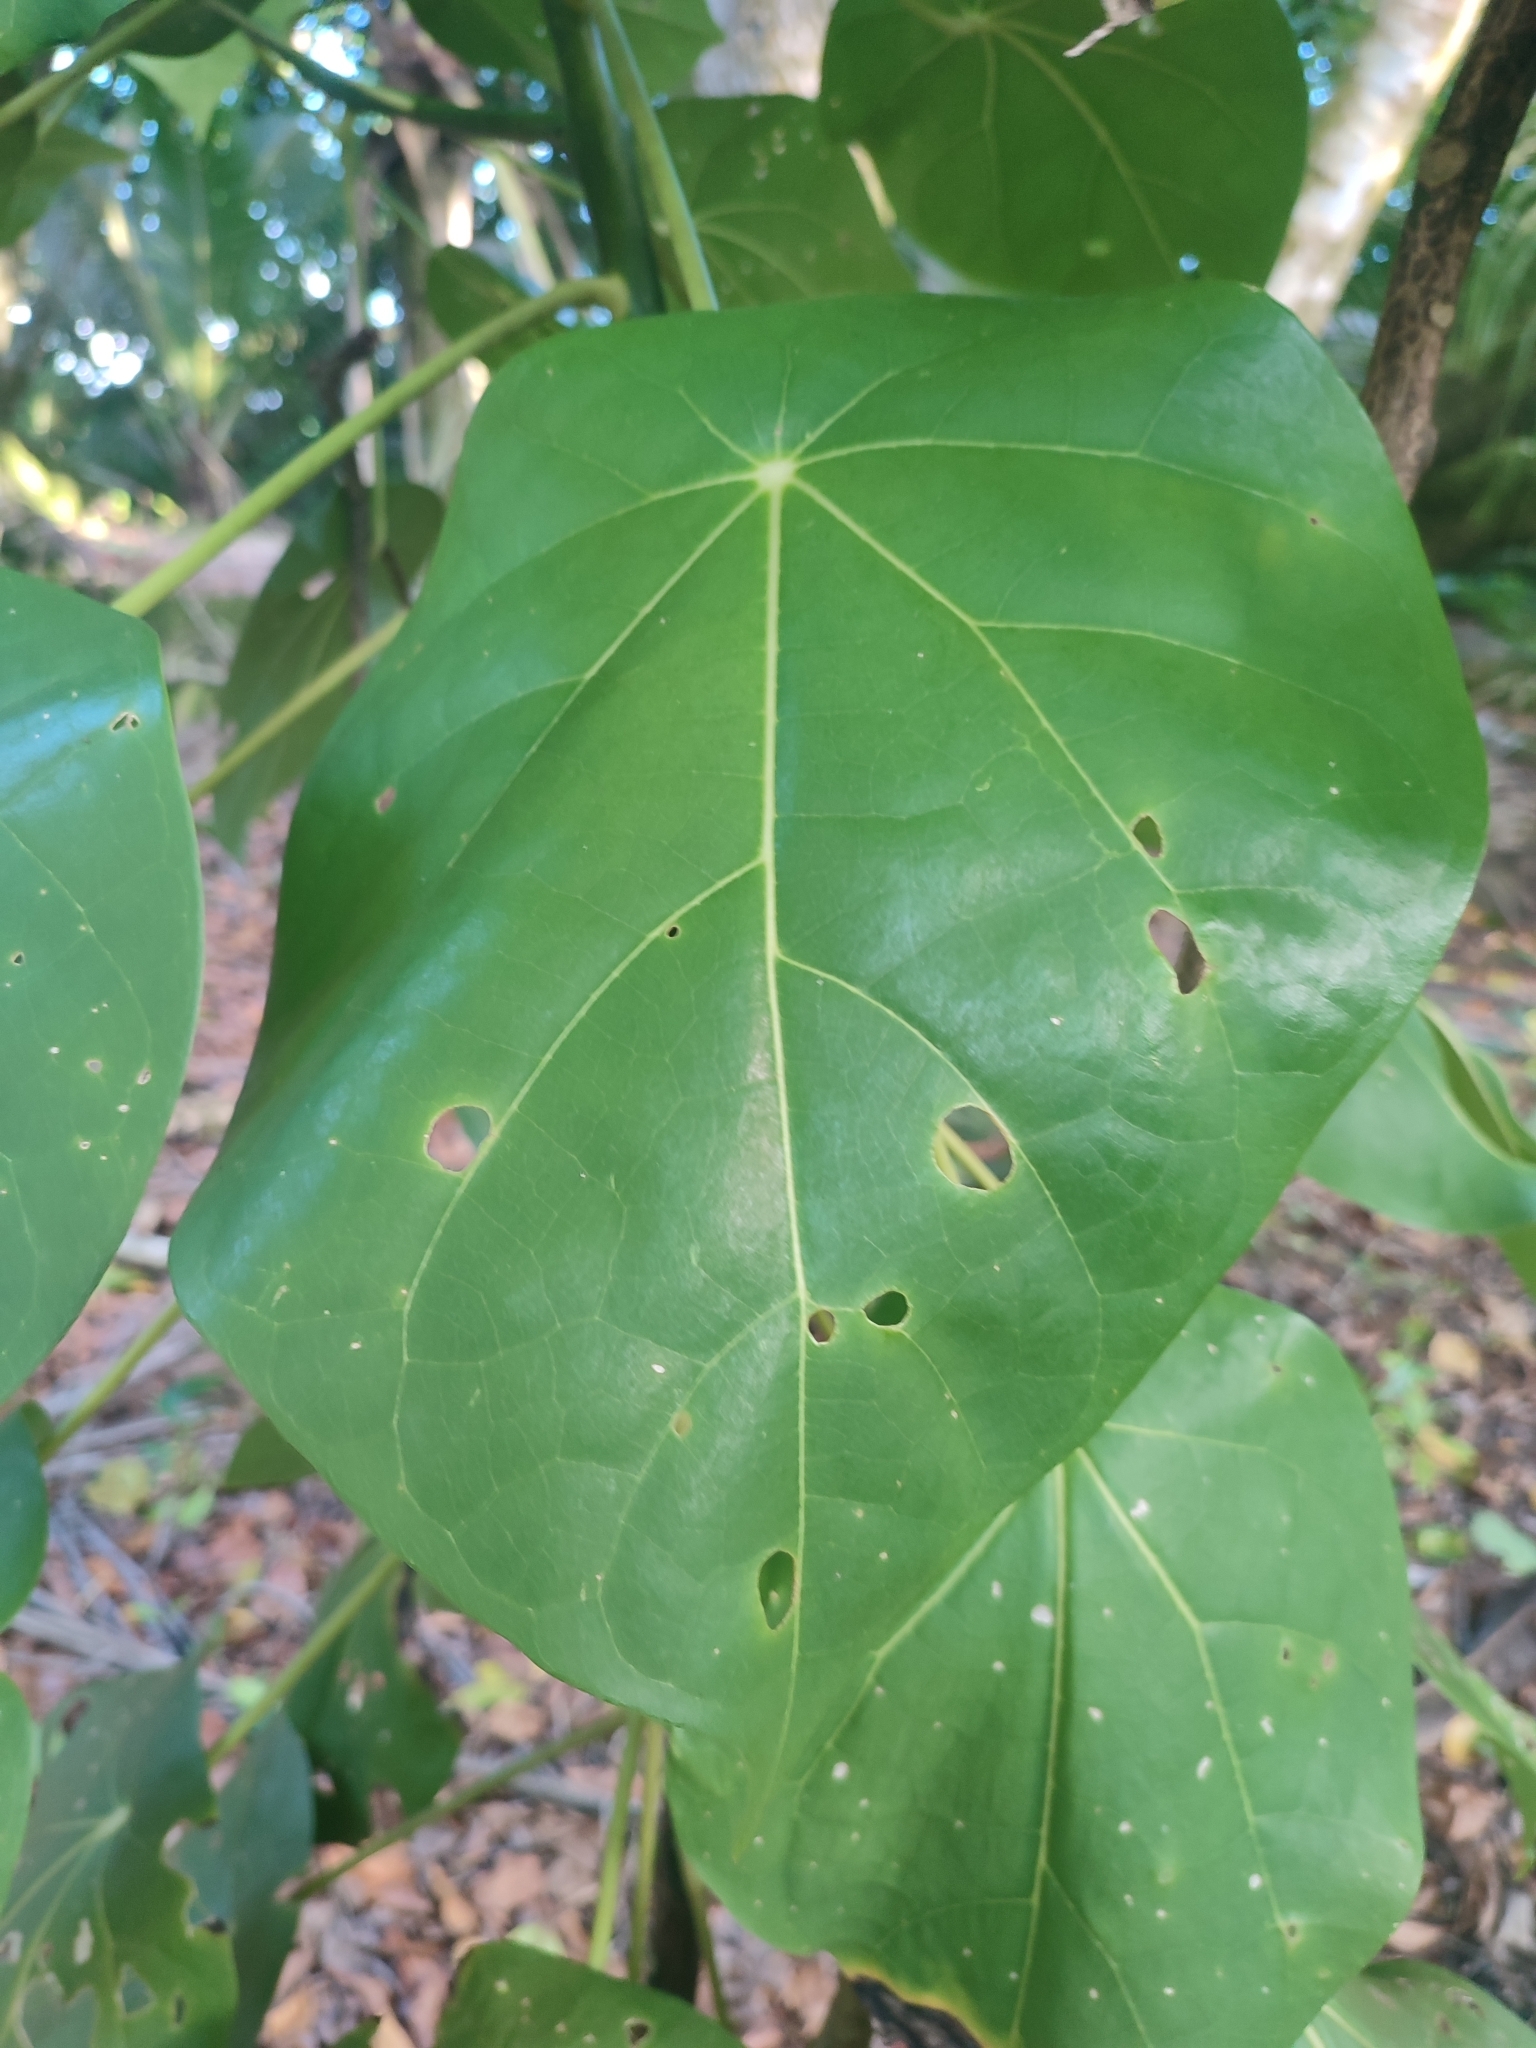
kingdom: Plantae
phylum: Tracheophyta
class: Magnoliopsida
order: Laurales
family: Hernandiaceae
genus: Hernandia
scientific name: Hernandia nymphaeifolia
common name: Sea hearse
